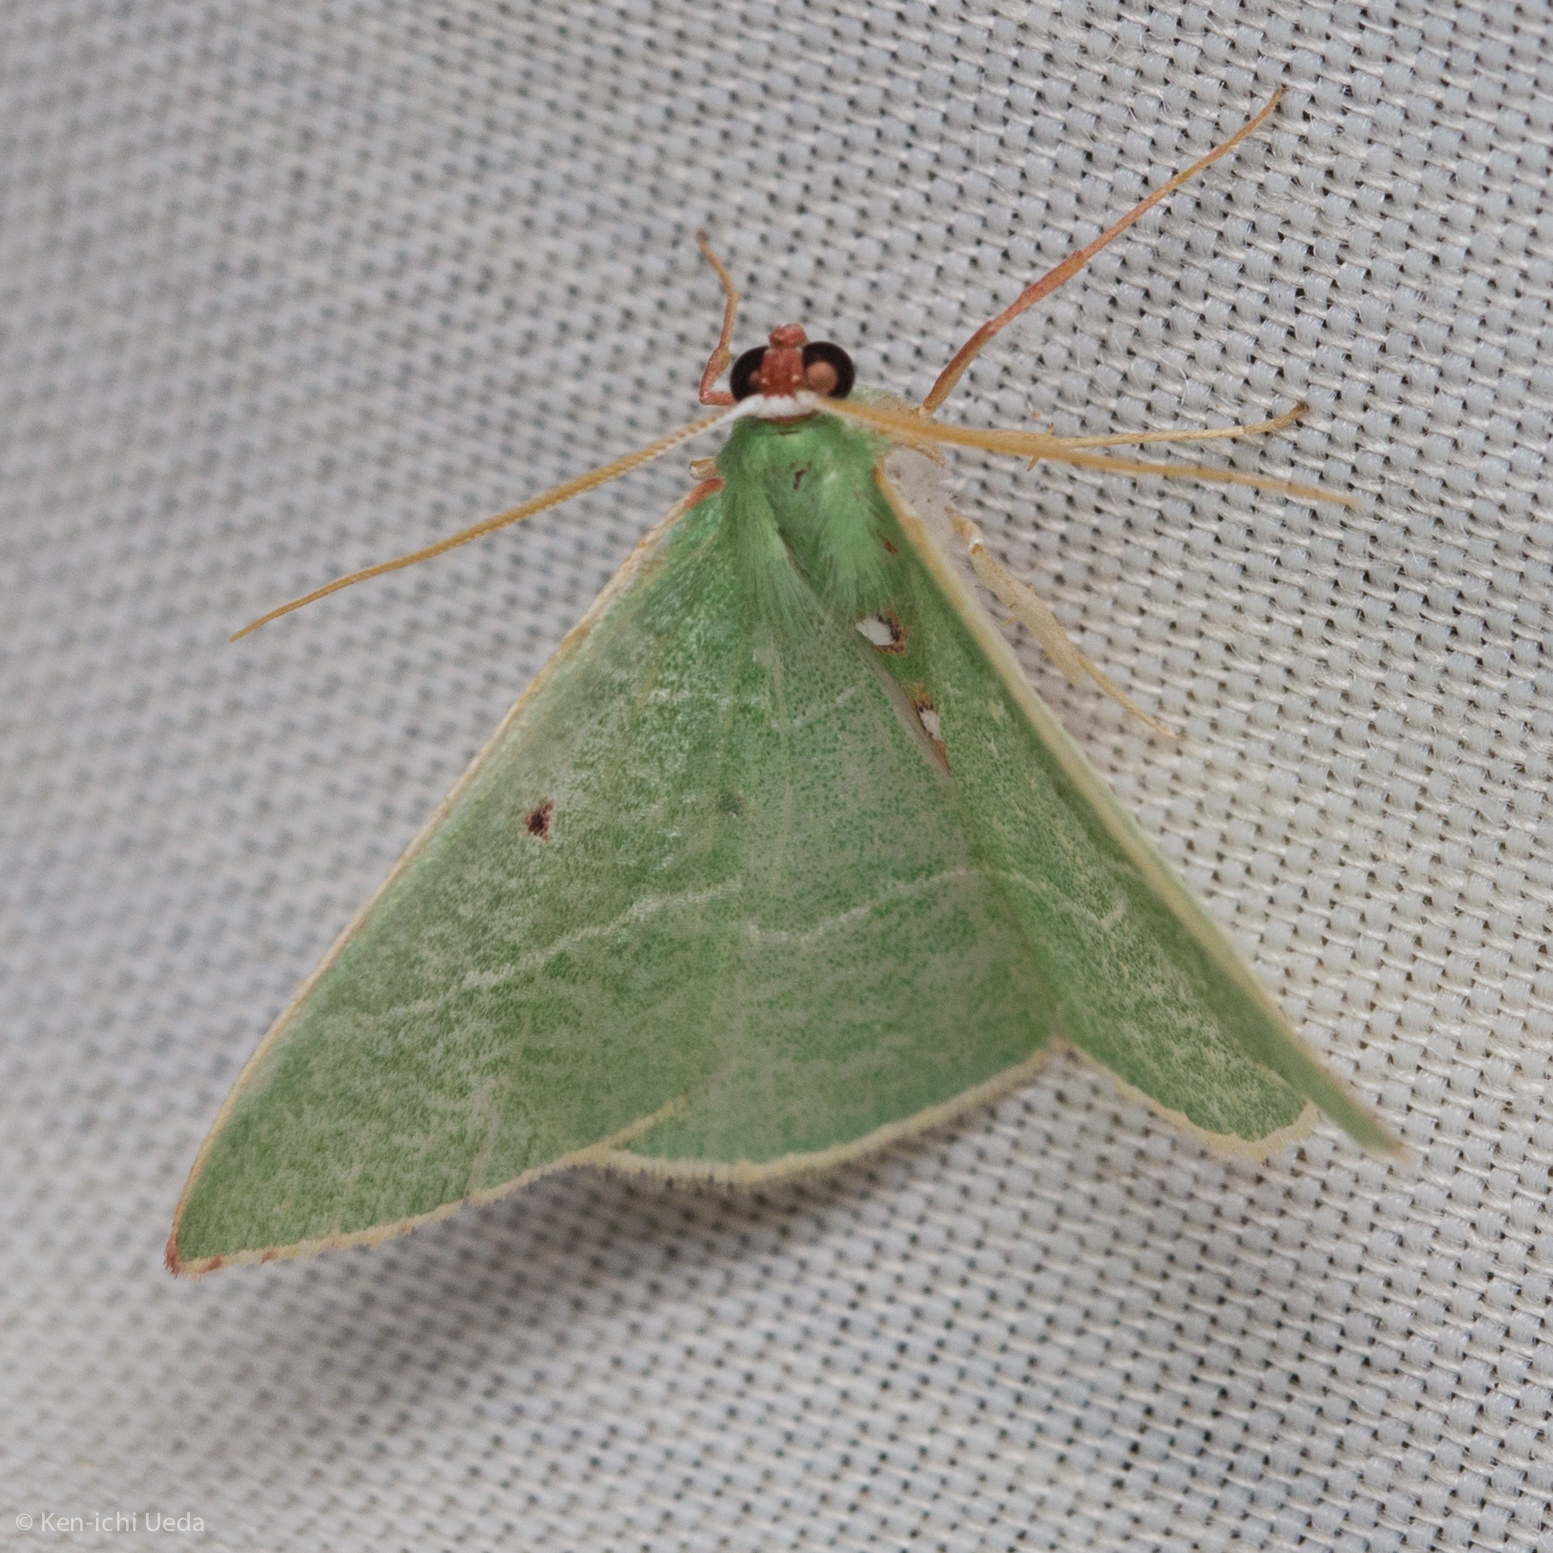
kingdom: Animalia
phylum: Arthropoda
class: Insecta
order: Lepidoptera
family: Geometridae
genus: Nemoria
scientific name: Nemoria darwiniata
